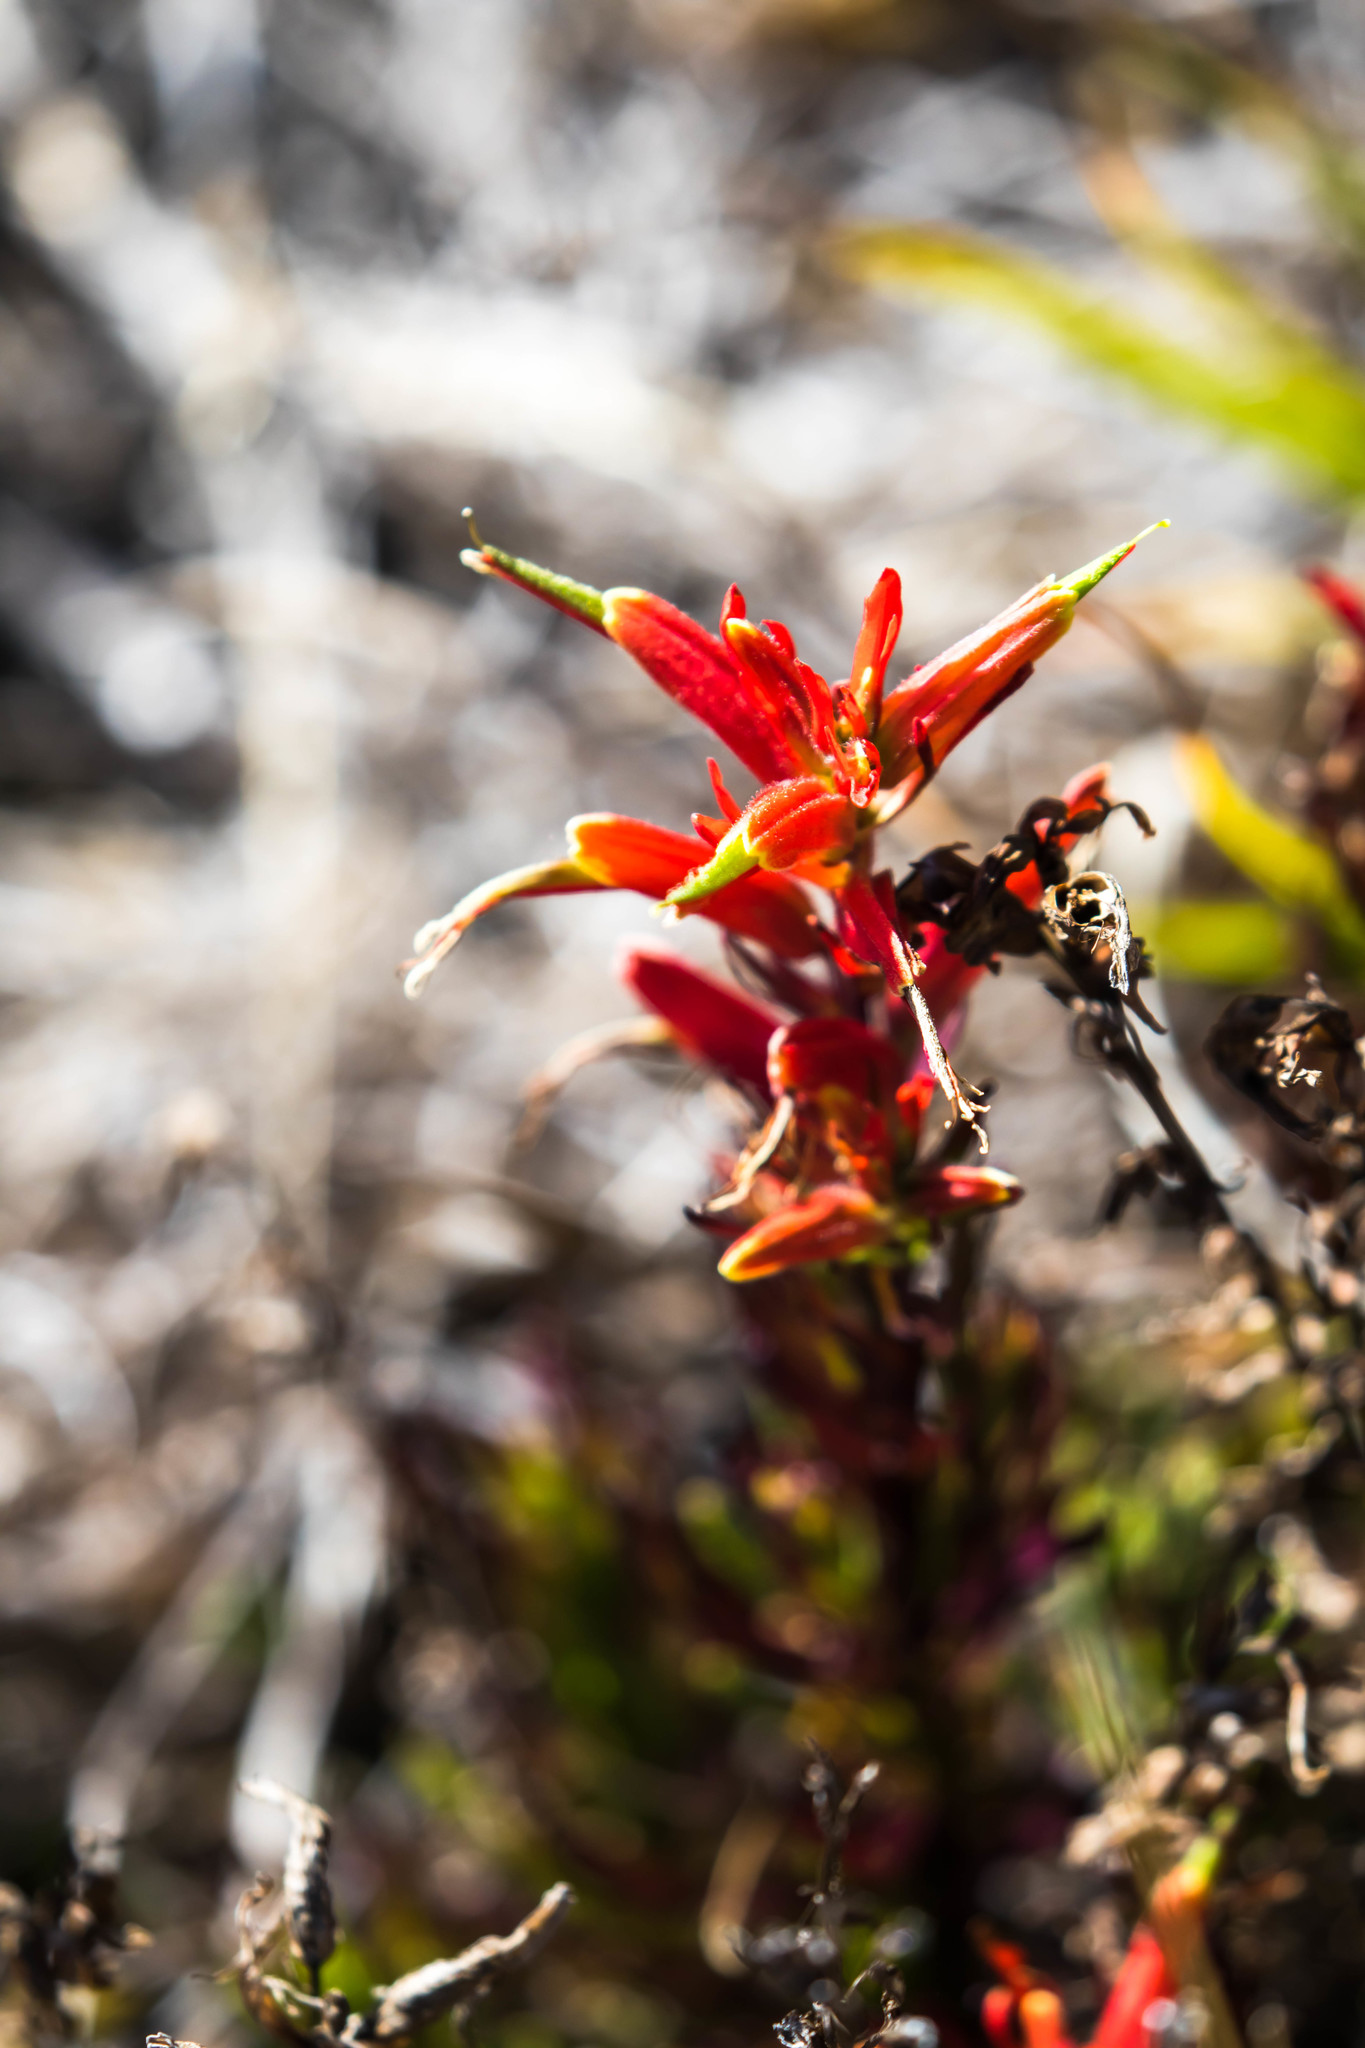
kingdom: Plantae
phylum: Tracheophyta
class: Magnoliopsida
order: Lamiales
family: Orobanchaceae
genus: Castilleja
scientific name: Castilleja talamancensis
